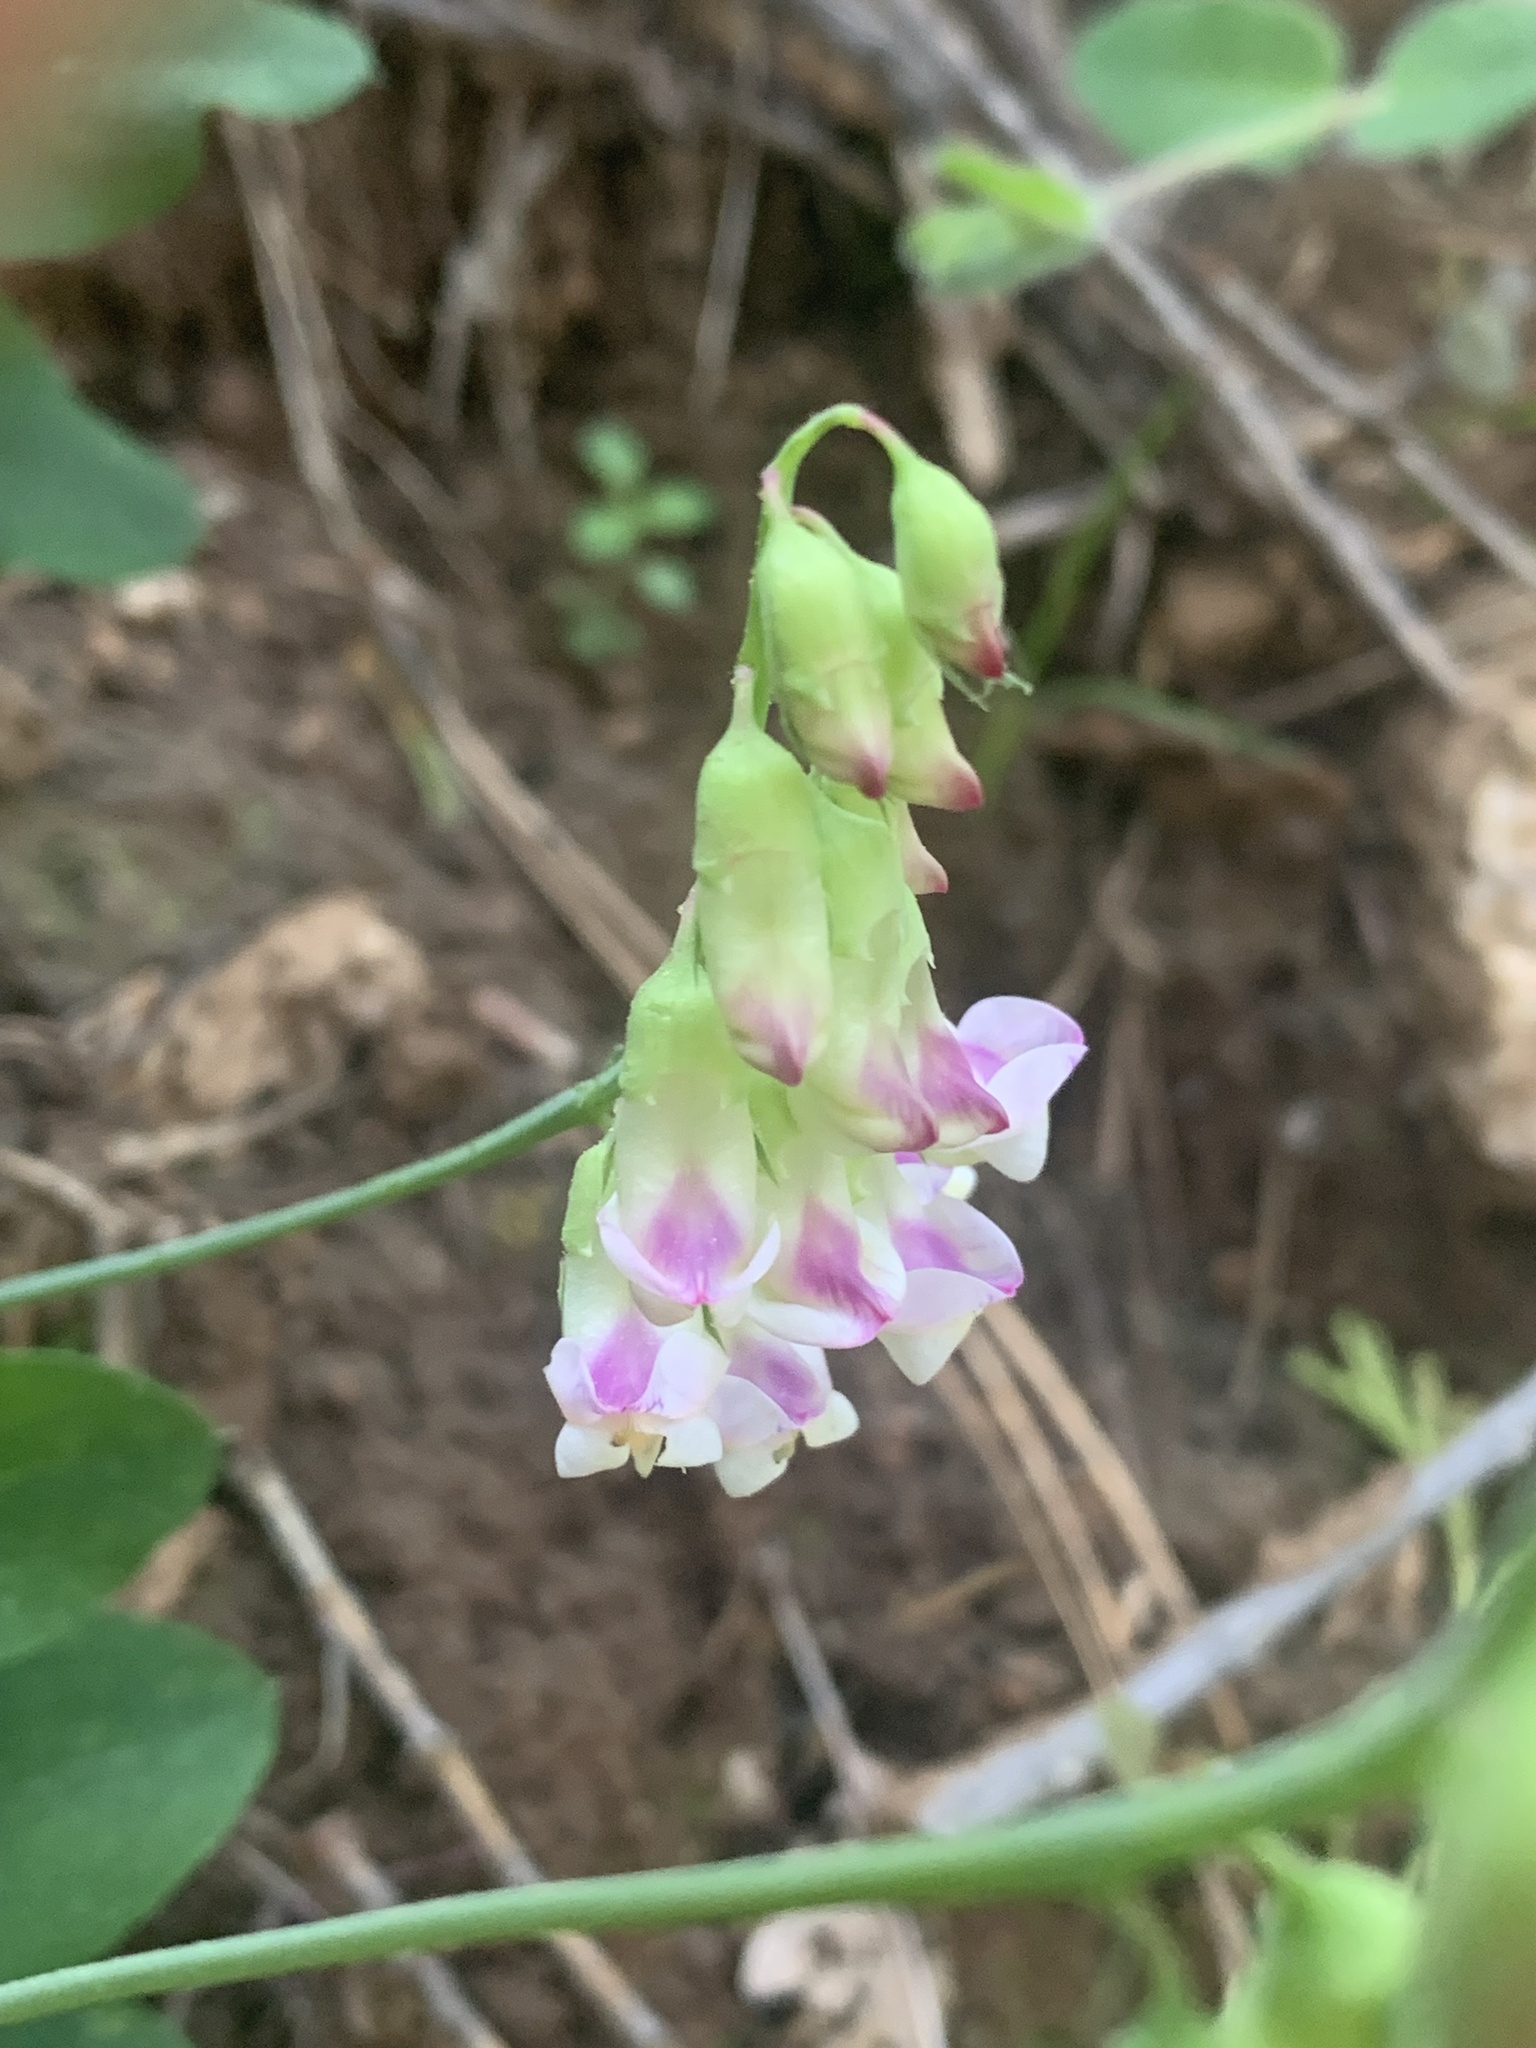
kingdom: Plantae
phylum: Tracheophyta
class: Magnoliopsida
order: Fabales
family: Fabaceae
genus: Lathyrus
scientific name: Lathyrus sulphureus
